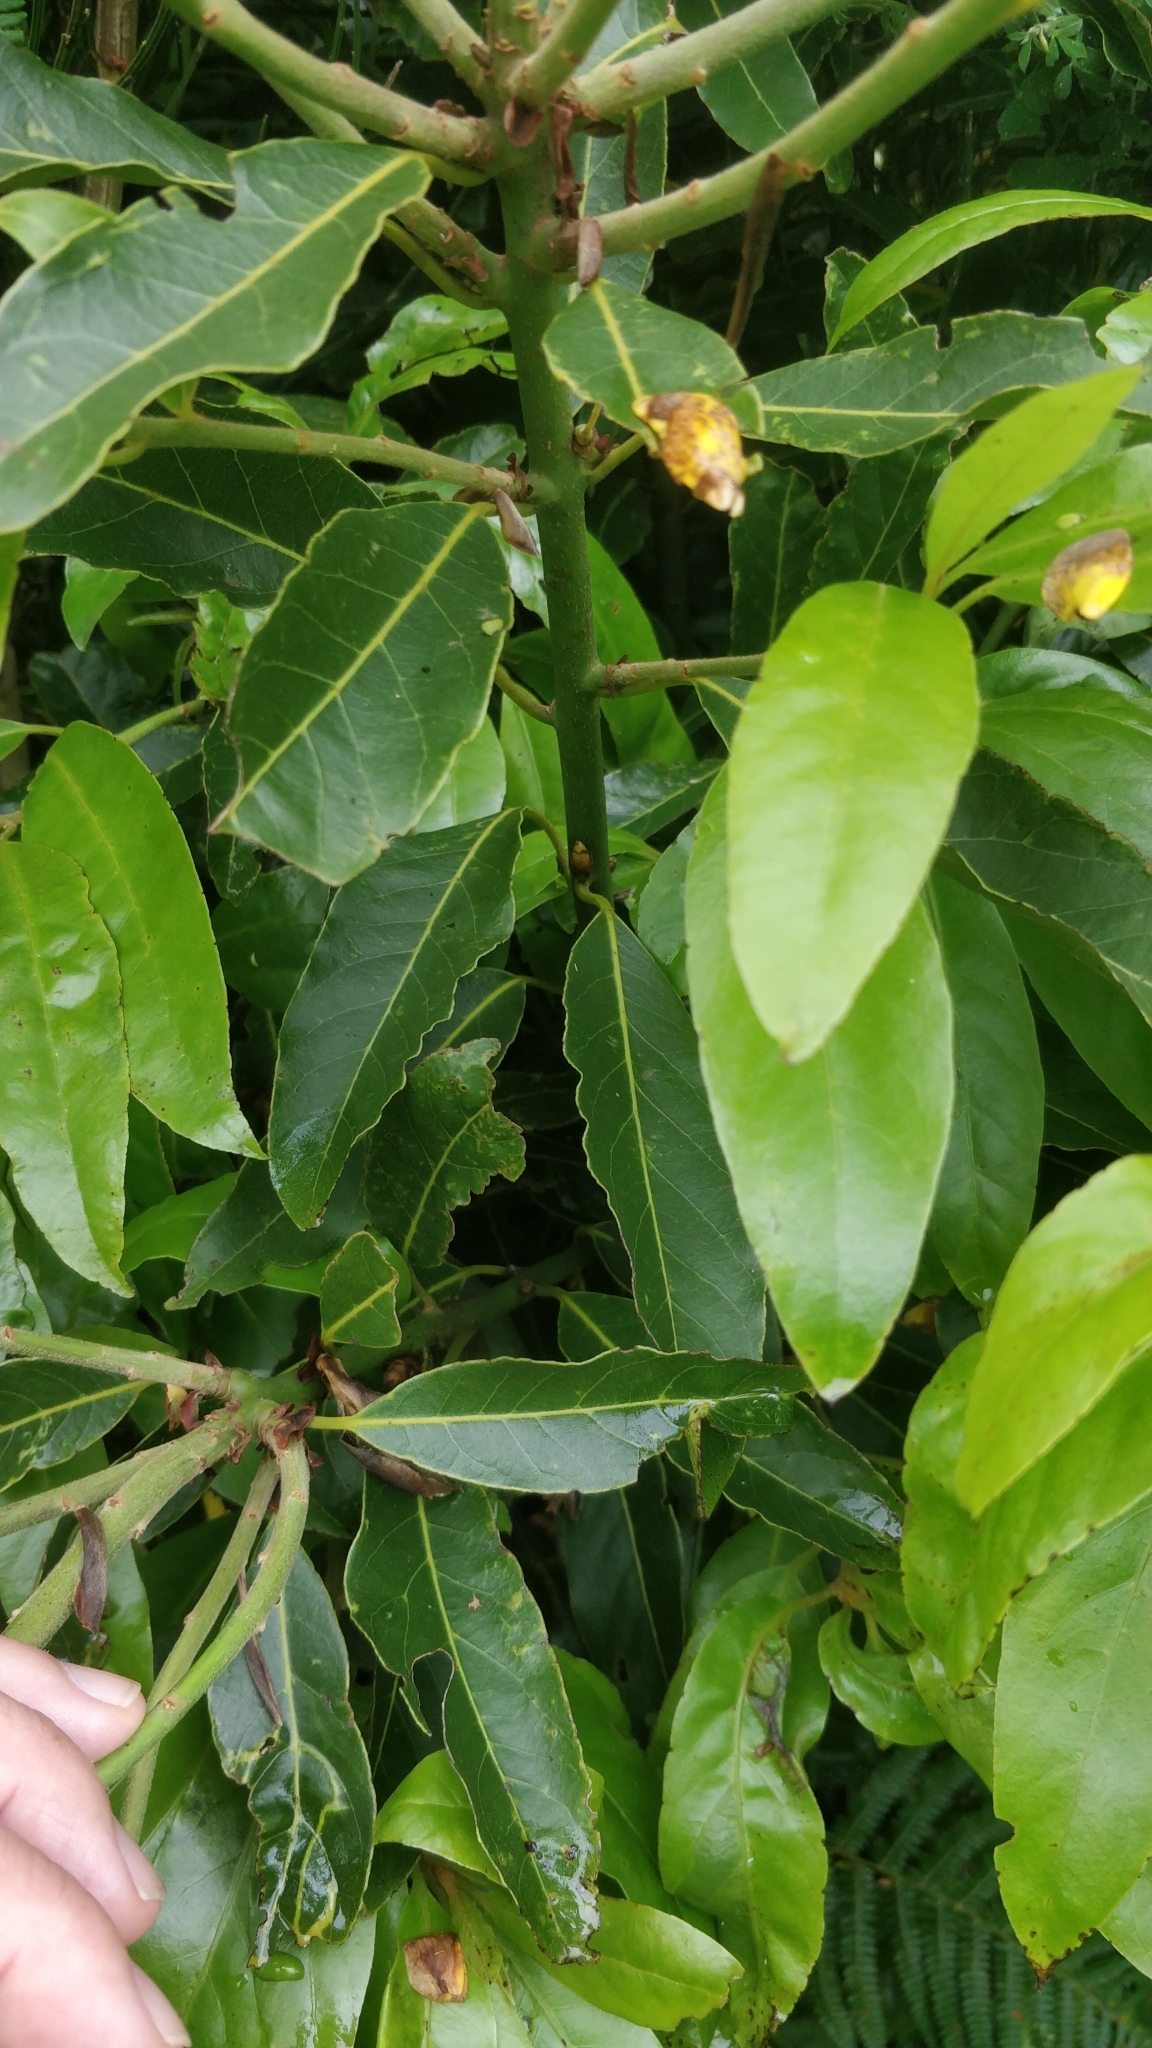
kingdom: Plantae
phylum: Tracheophyta
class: Magnoliopsida
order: Laurales
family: Lauraceae
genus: Laurus
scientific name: Laurus novocanariensis
